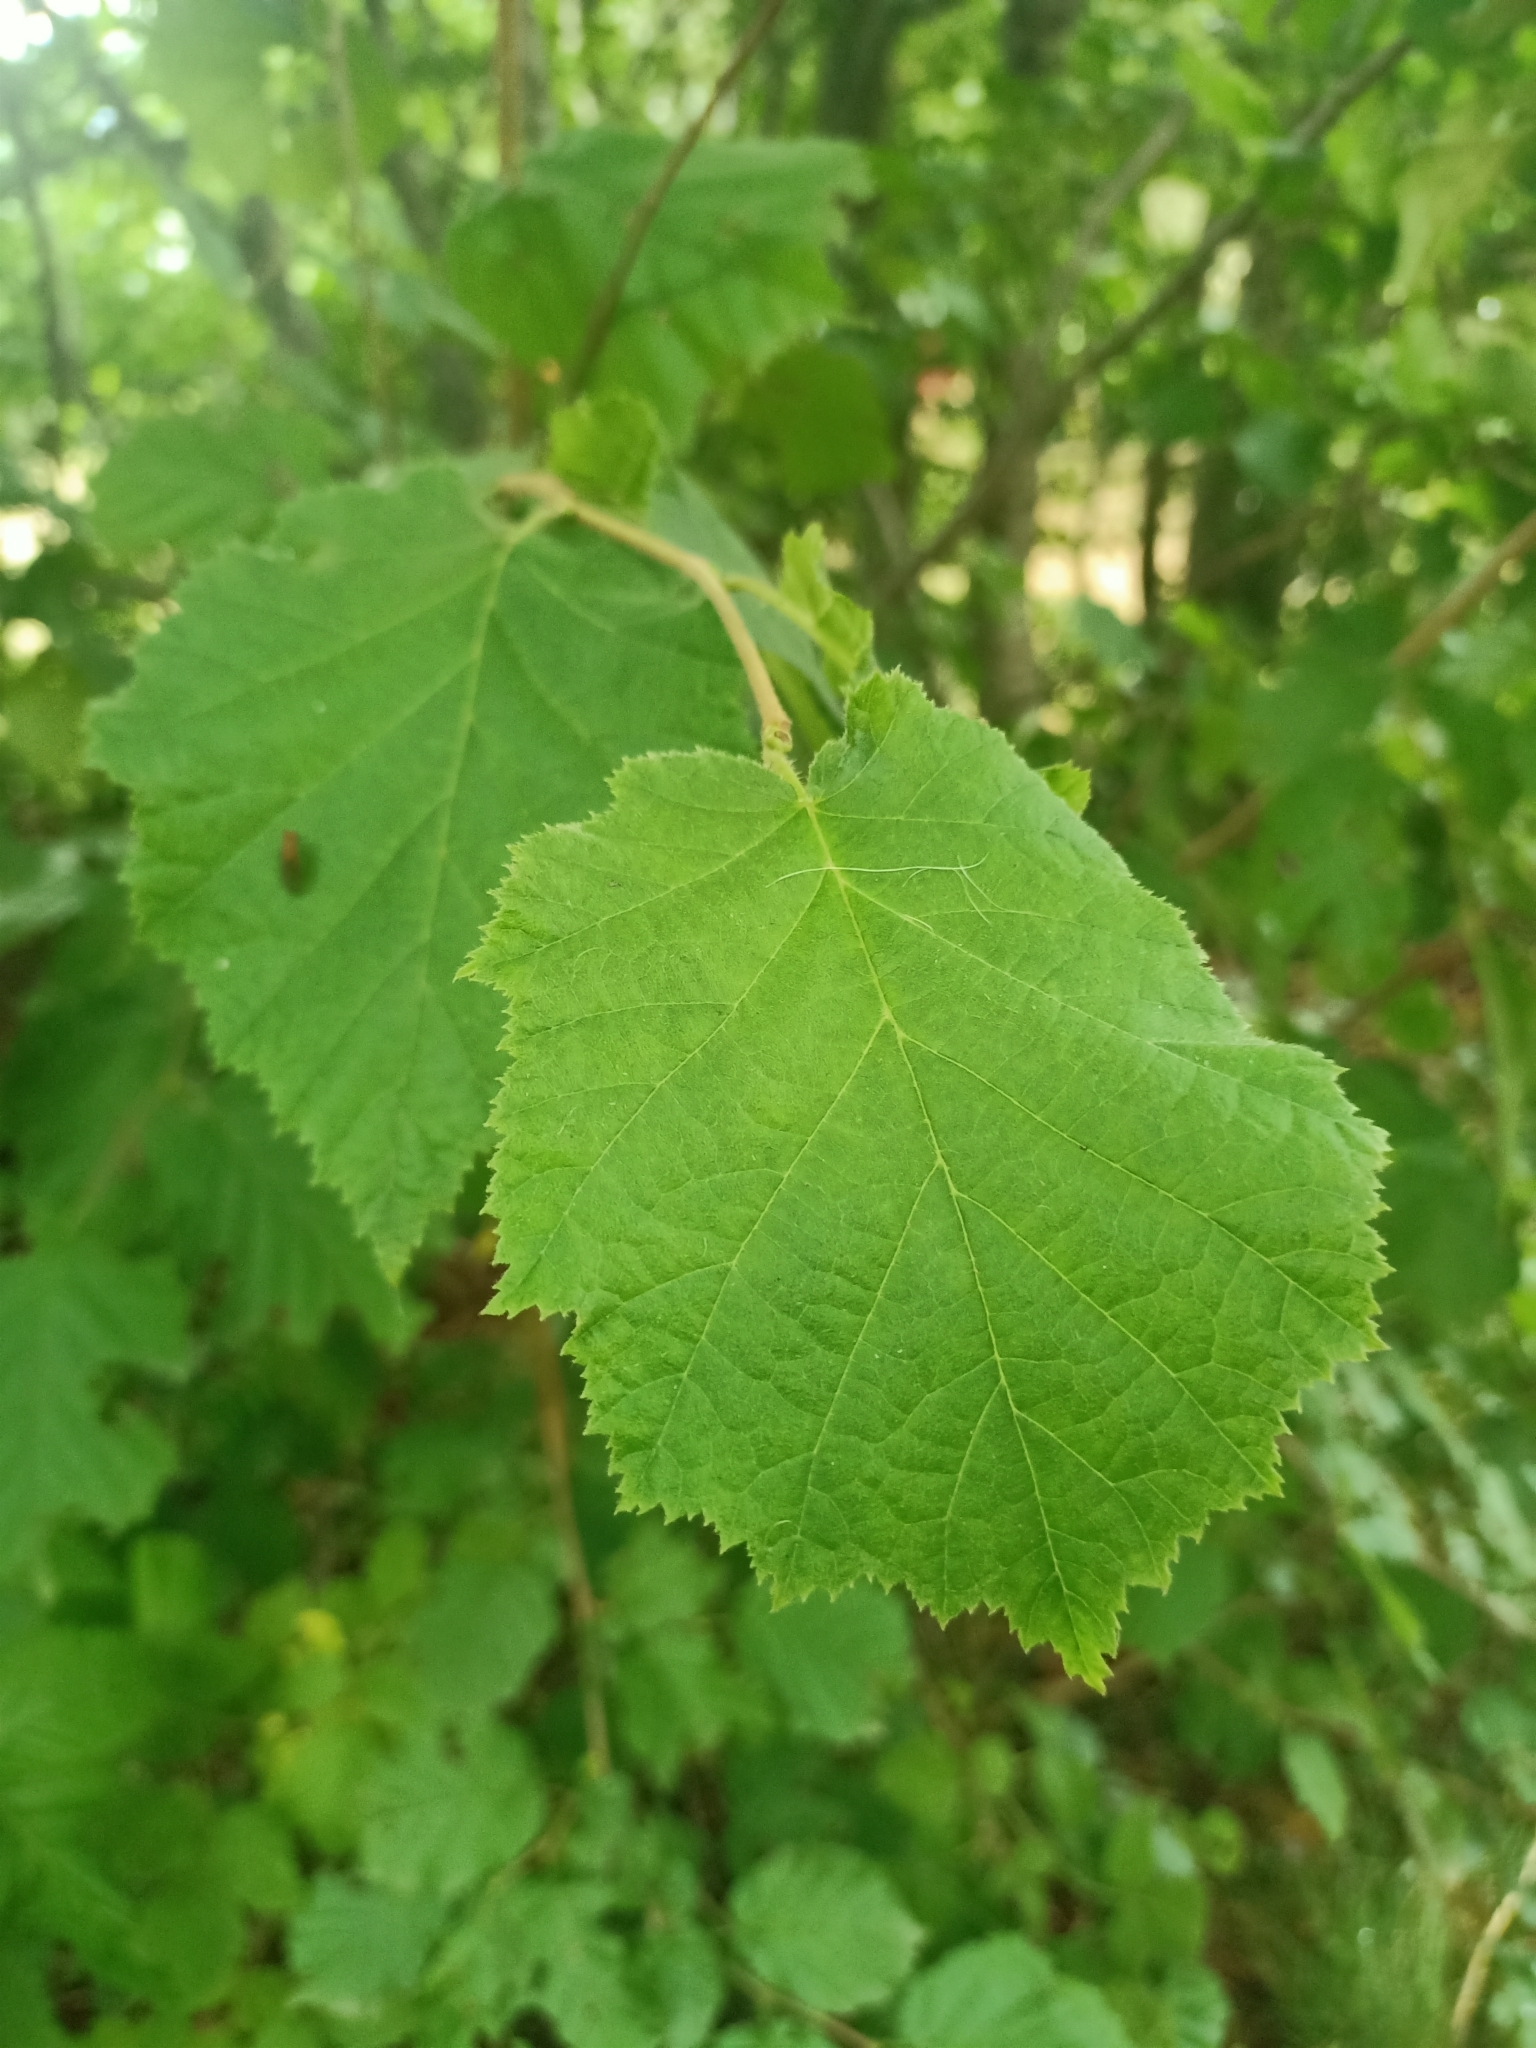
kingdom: Plantae
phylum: Tracheophyta
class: Magnoliopsida
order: Fagales
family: Betulaceae
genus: Corylus
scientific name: Corylus avellana
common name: European hazel
